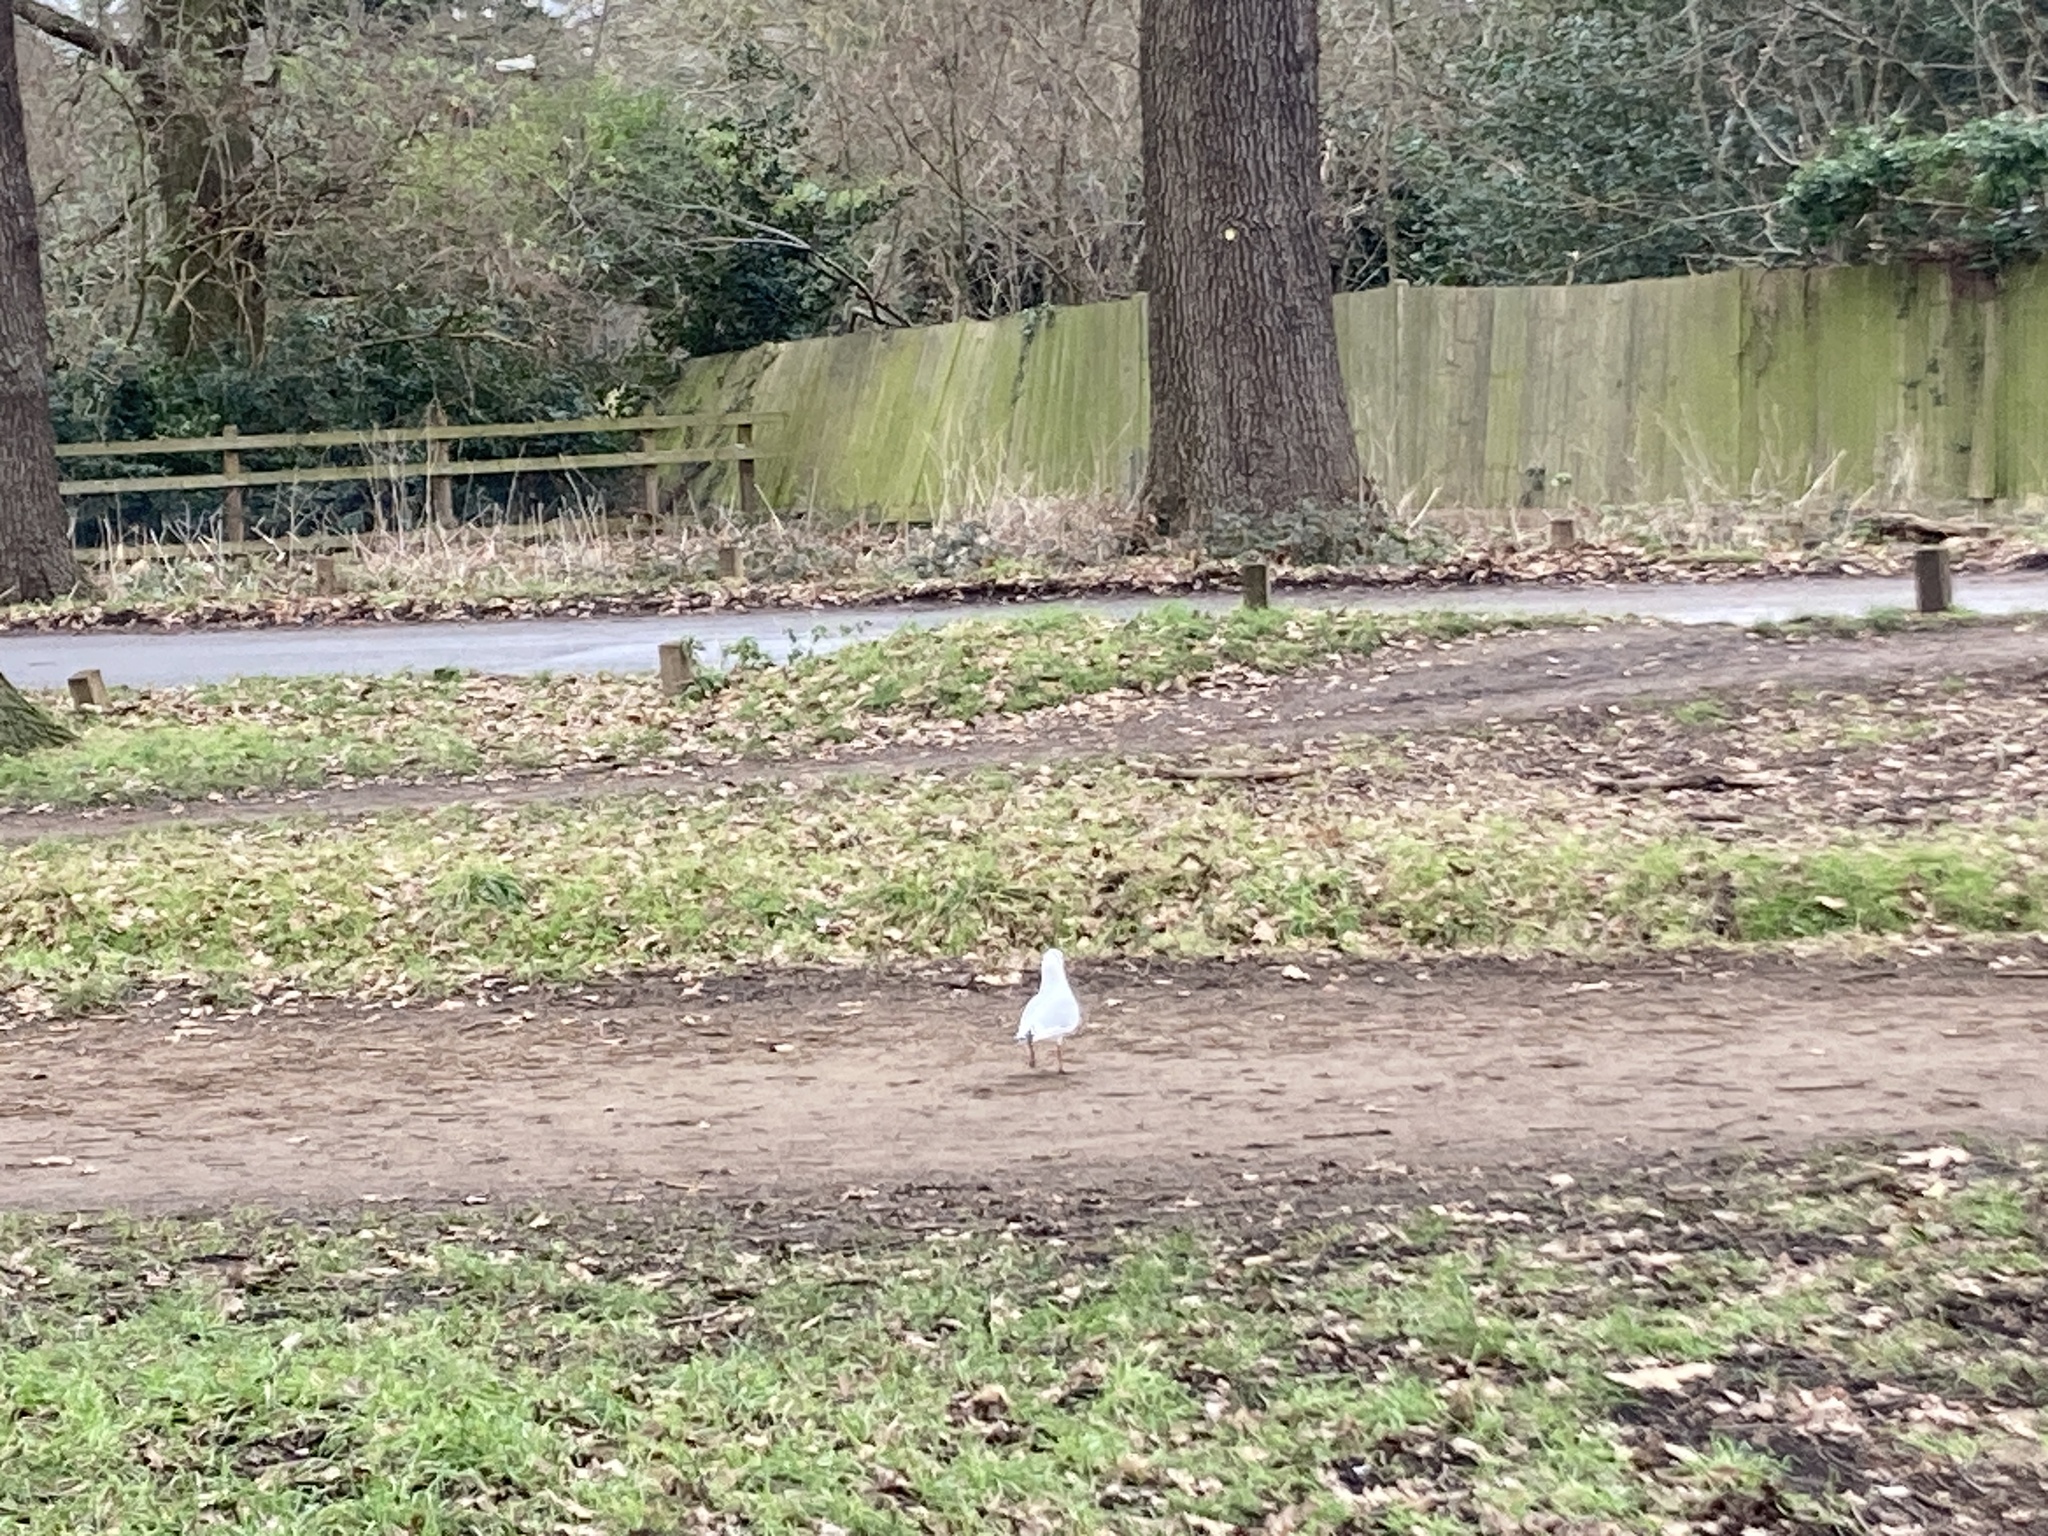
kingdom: Animalia
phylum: Chordata
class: Aves
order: Charadriiformes
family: Laridae
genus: Chroicocephalus
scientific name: Chroicocephalus ridibundus
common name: Black-headed gull
